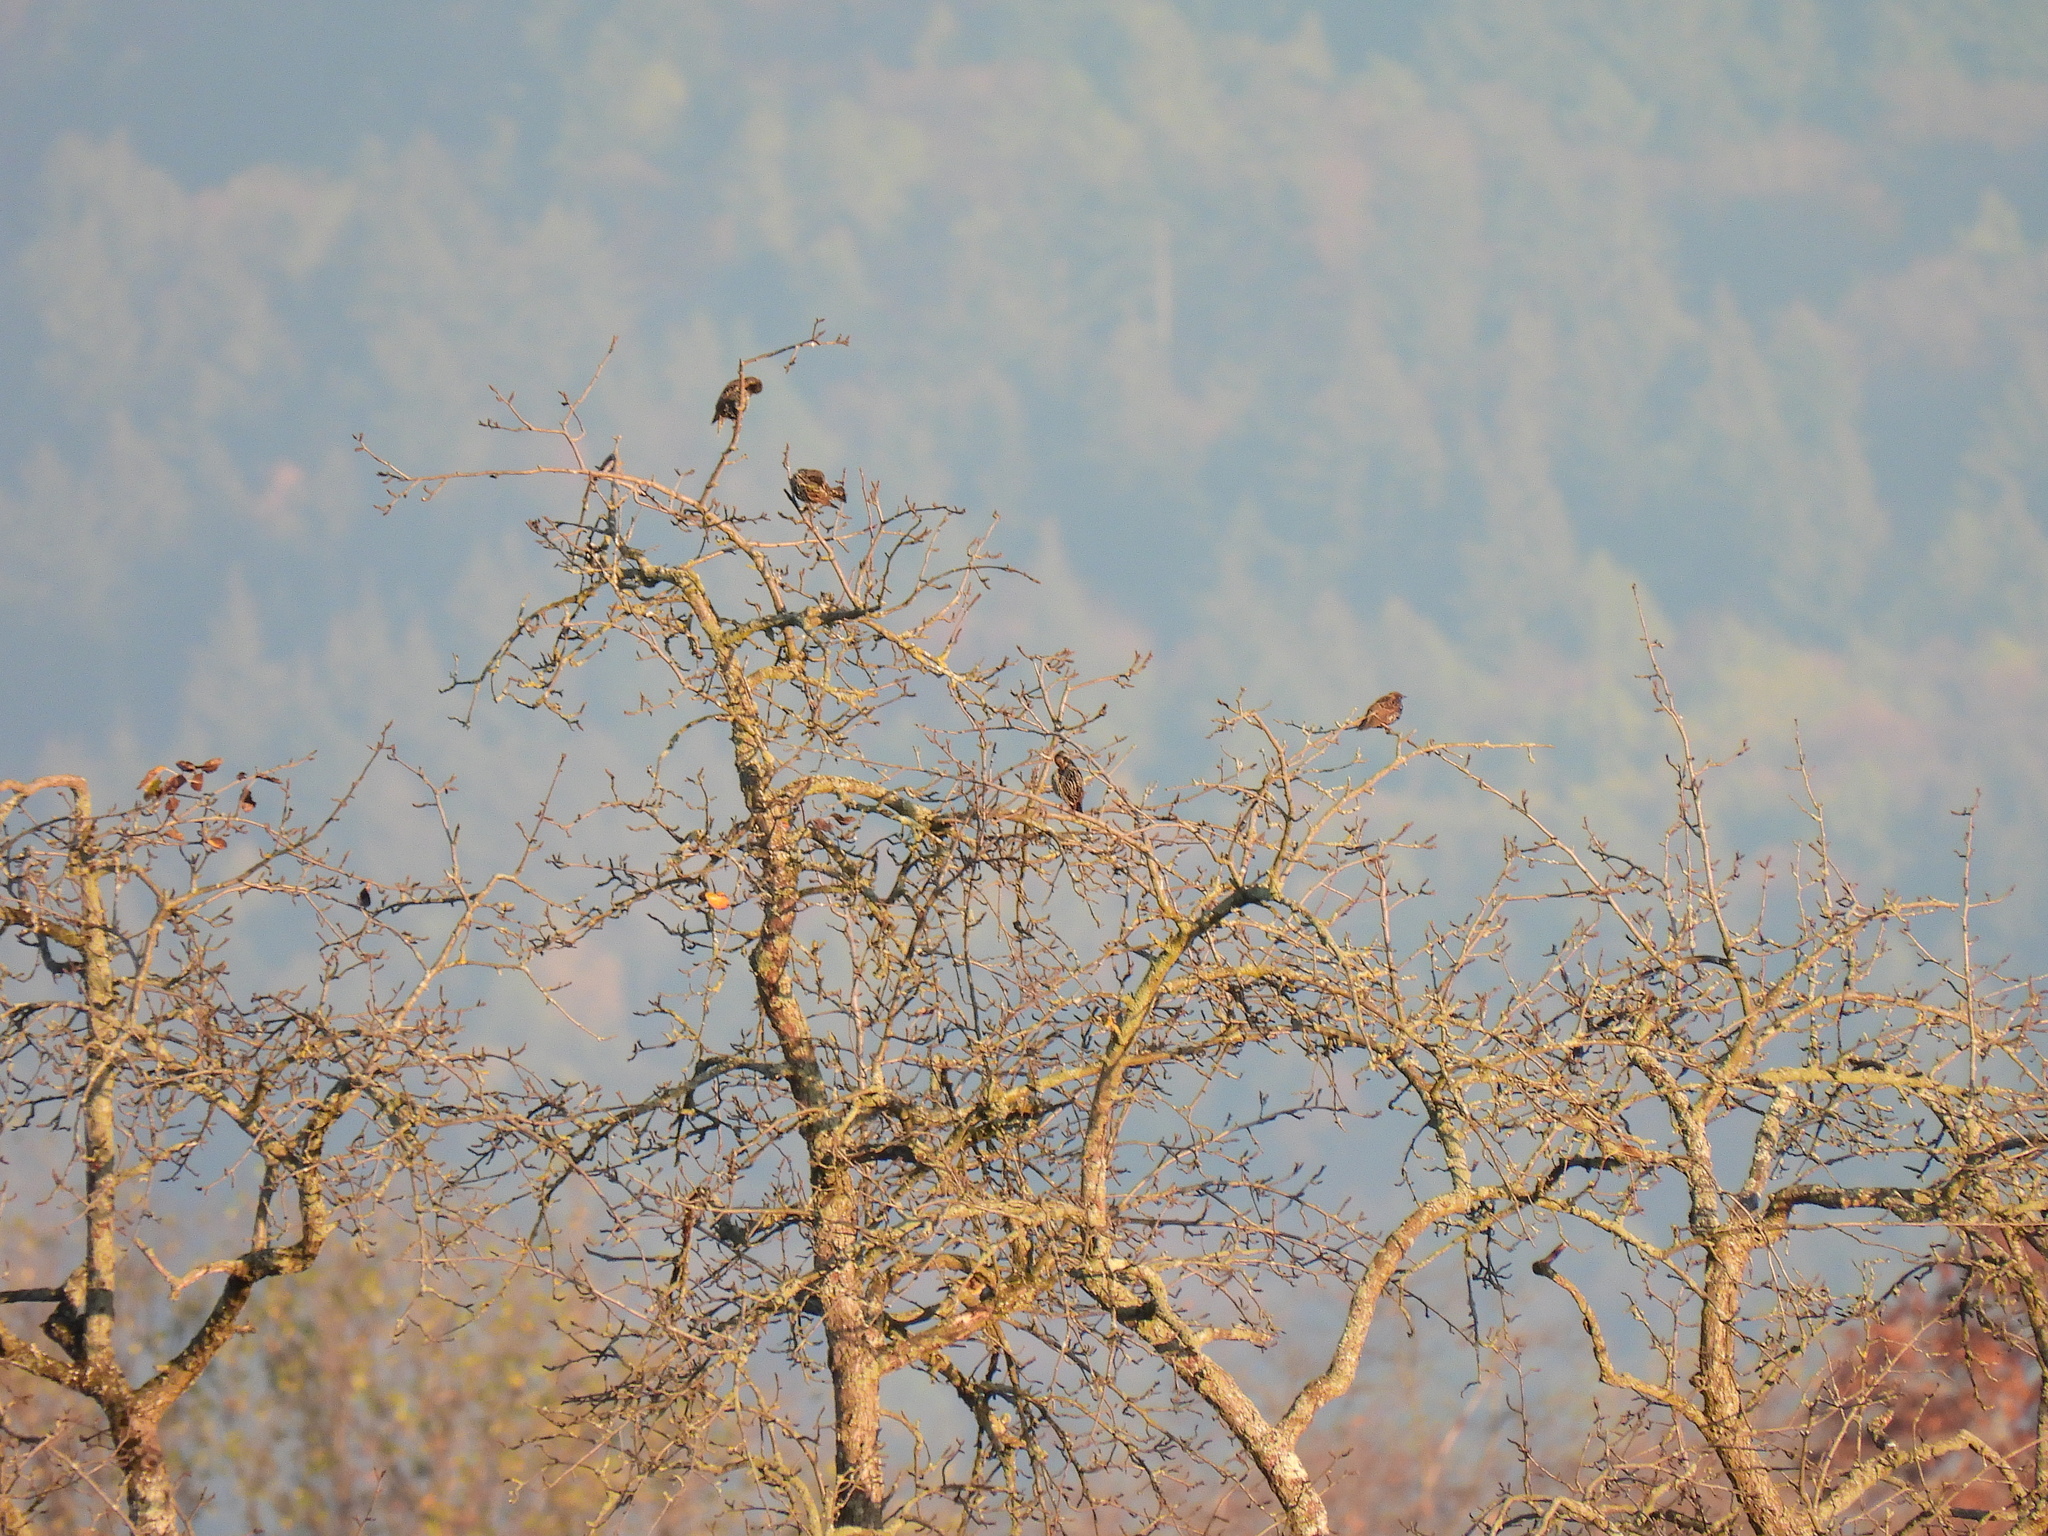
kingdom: Animalia
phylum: Chordata
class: Aves
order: Passeriformes
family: Sturnidae
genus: Sturnus
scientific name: Sturnus vulgaris
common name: Common starling
